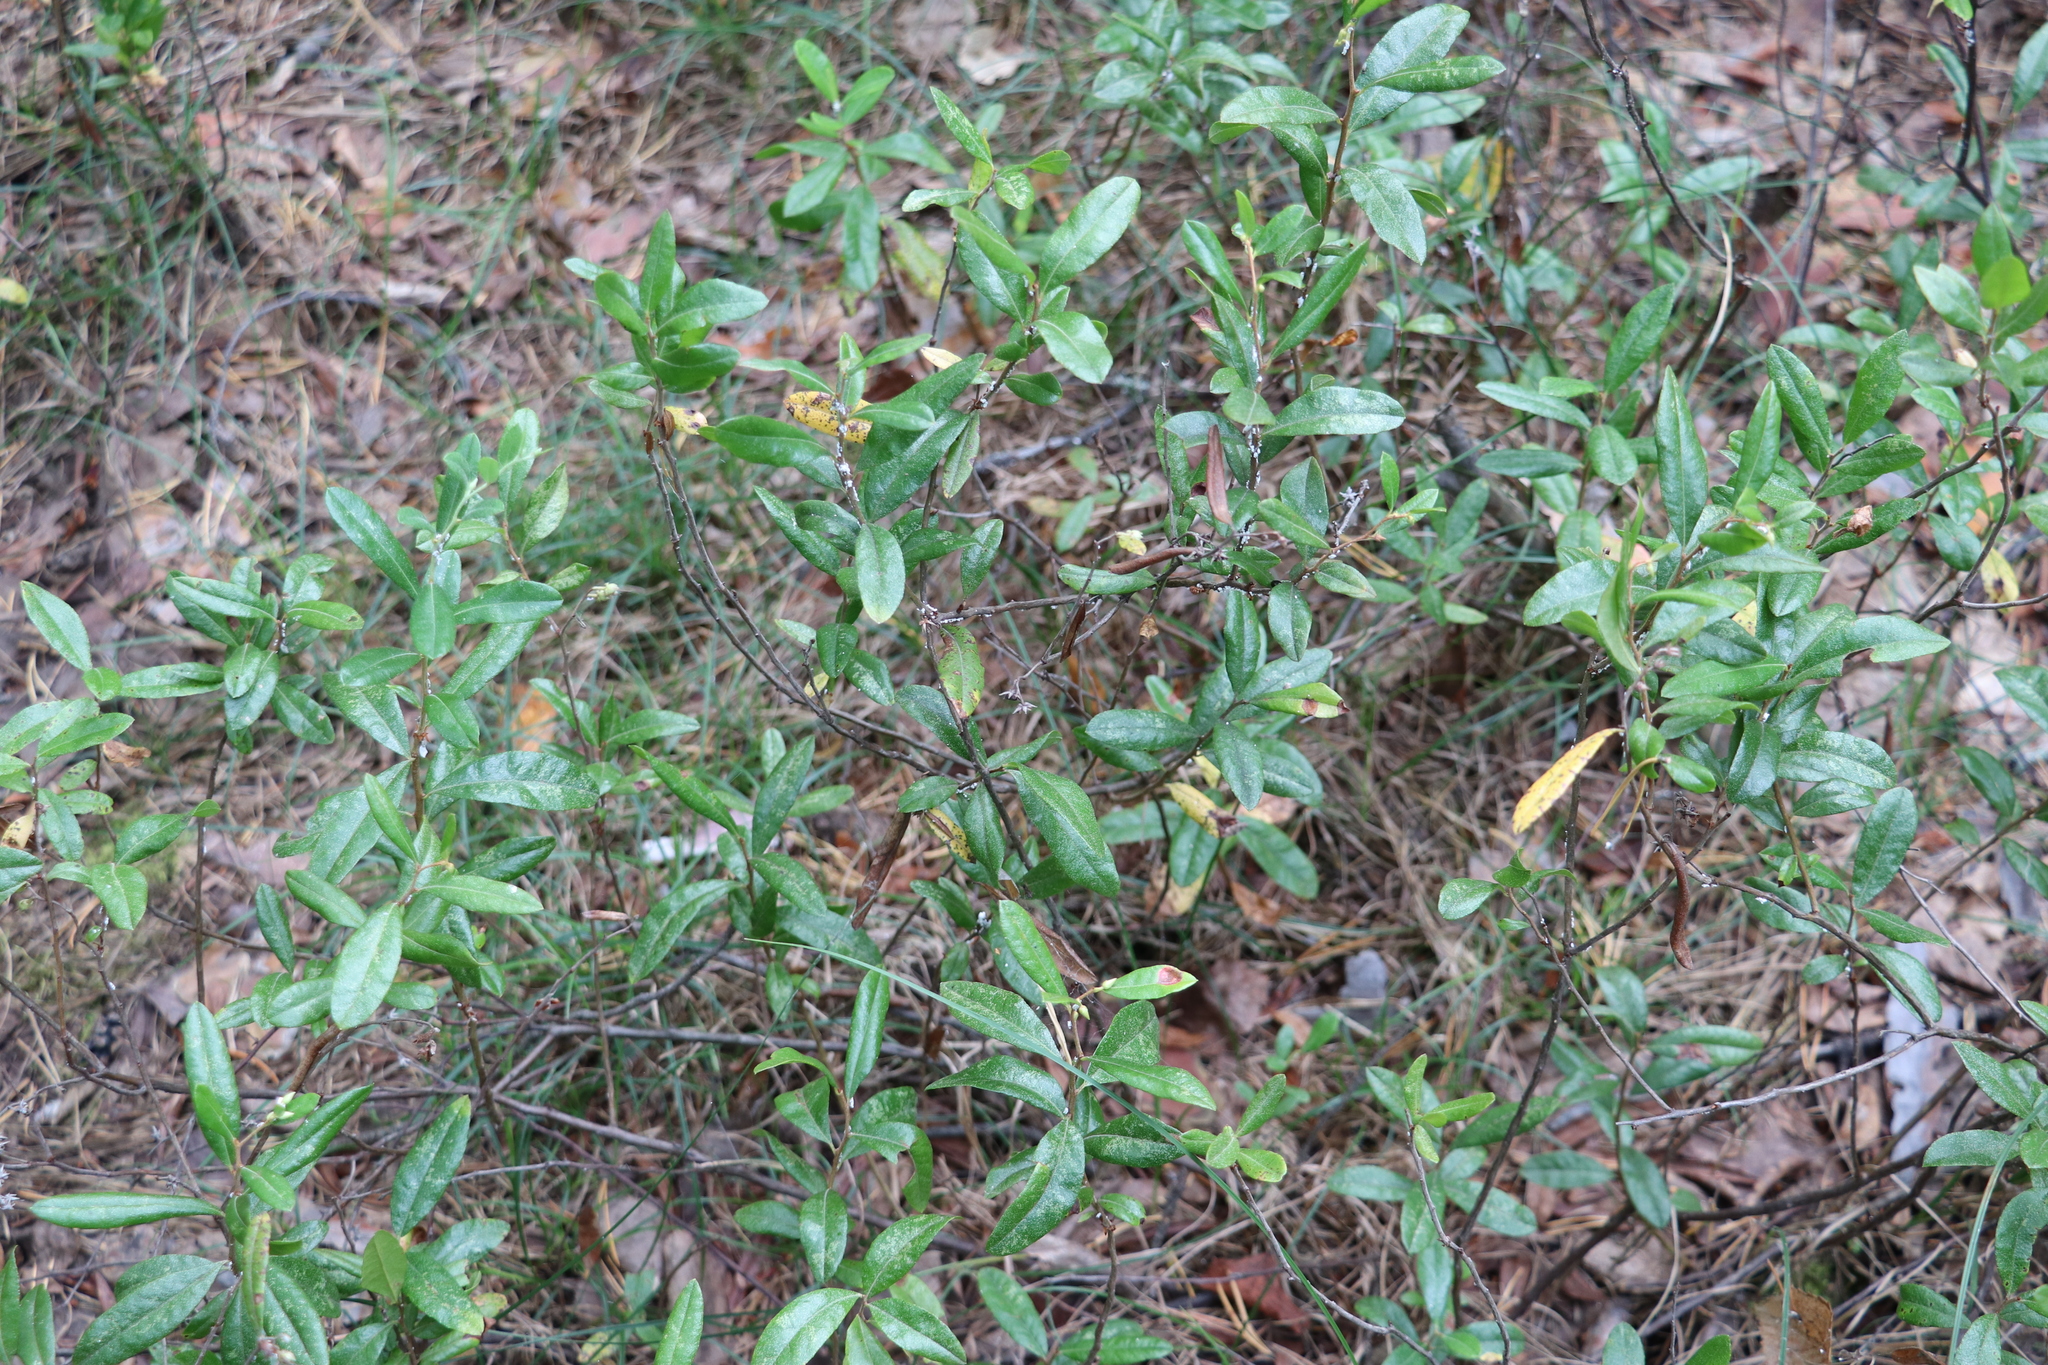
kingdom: Plantae
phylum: Tracheophyta
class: Magnoliopsida
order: Ericales
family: Ericaceae
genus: Chamaedaphne
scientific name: Chamaedaphne calyculata
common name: Leatherleaf
